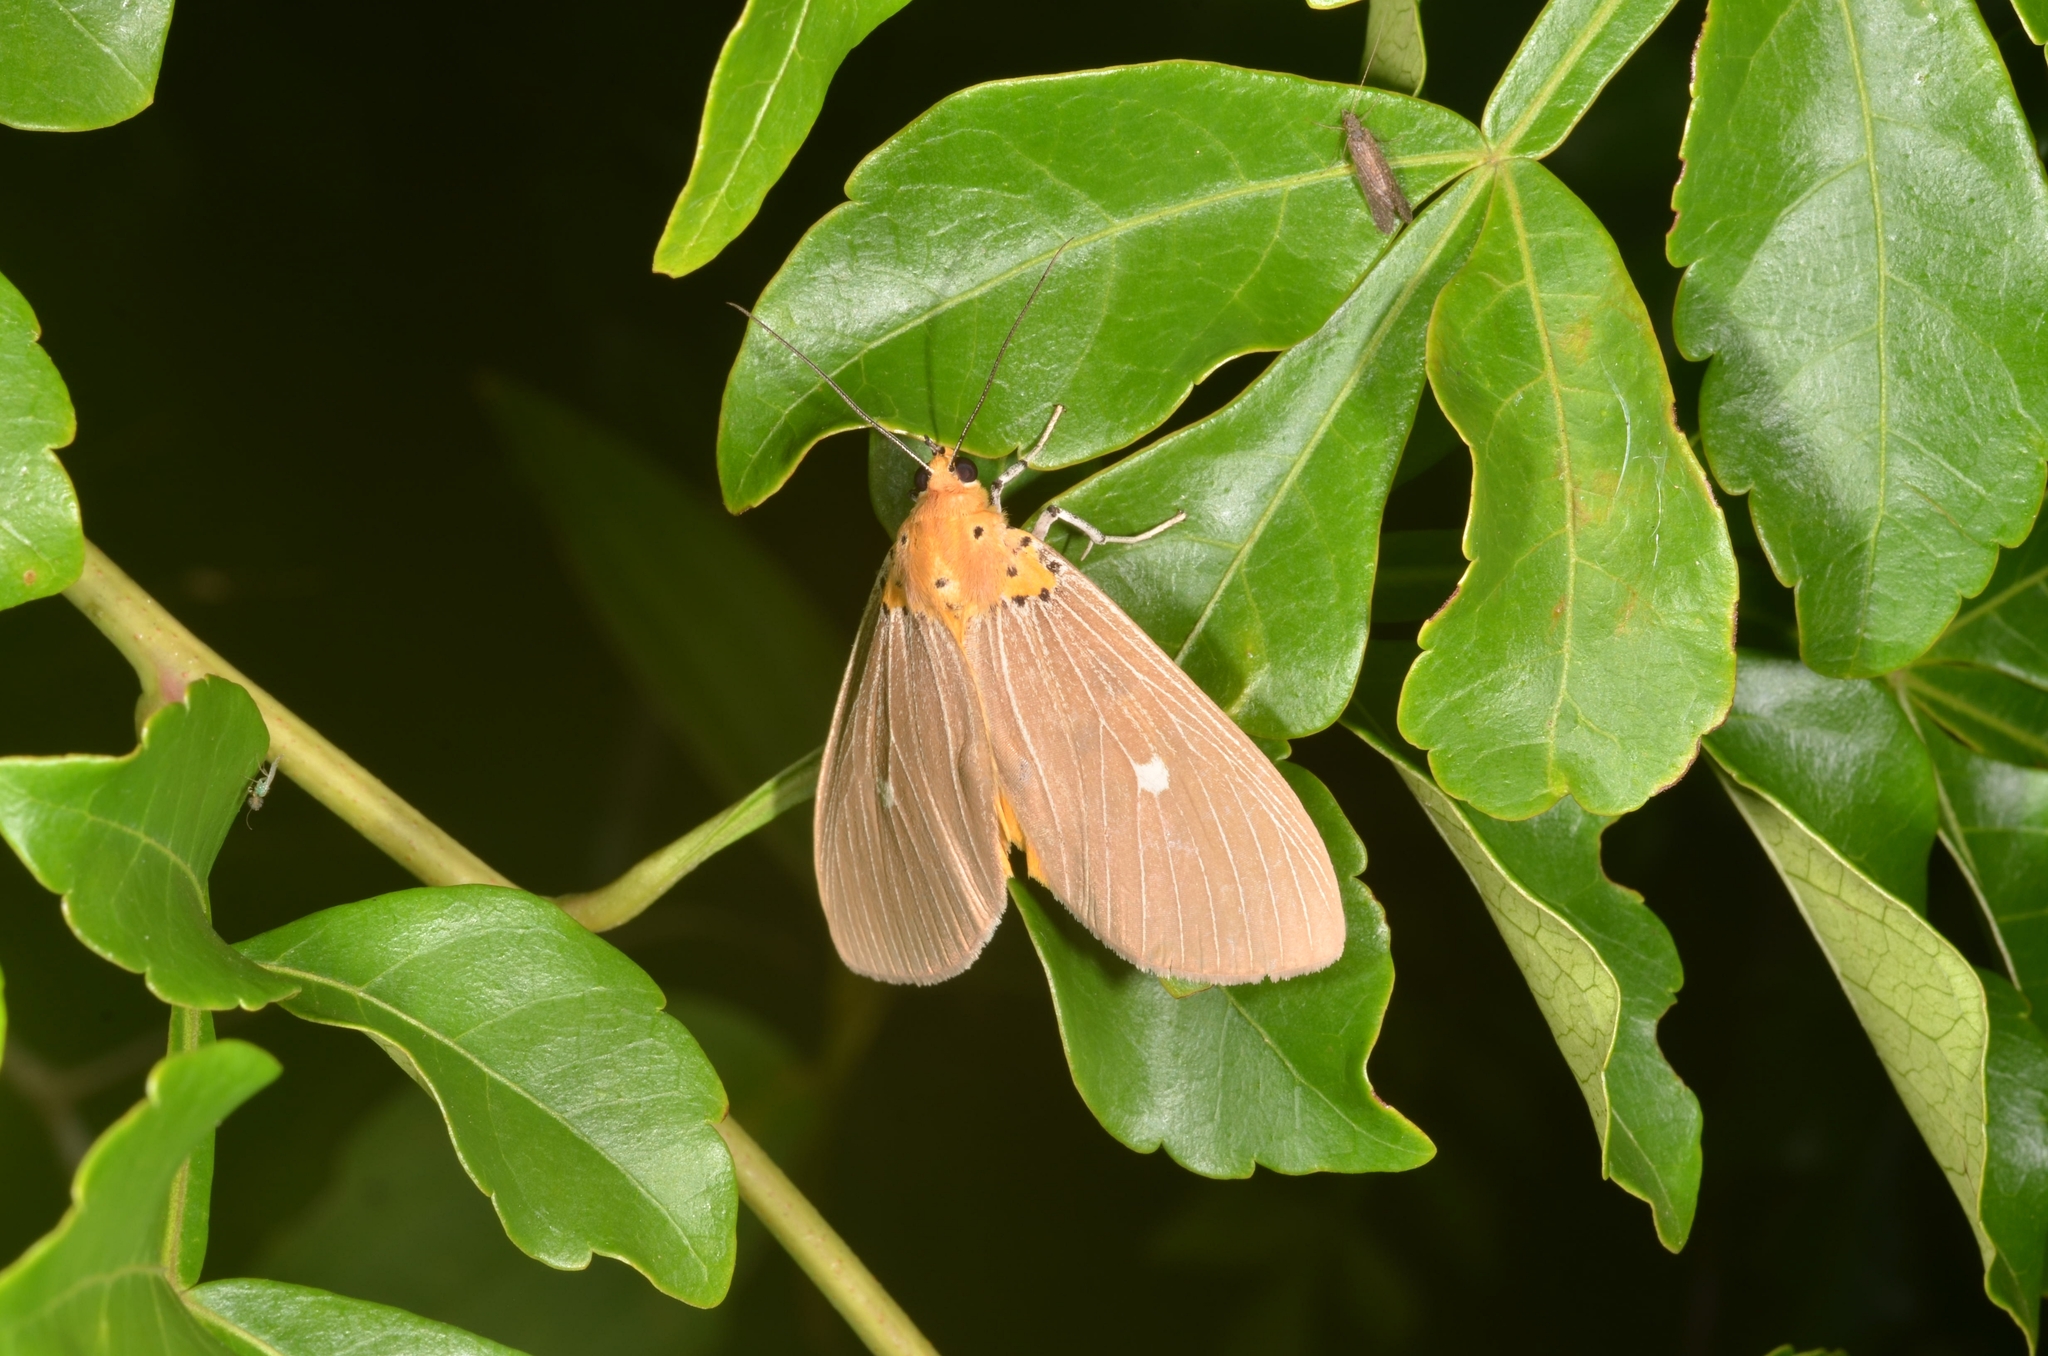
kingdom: Animalia
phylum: Arthropoda
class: Insecta
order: Lepidoptera
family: Erebidae
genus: Asota
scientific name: Asota caricae
